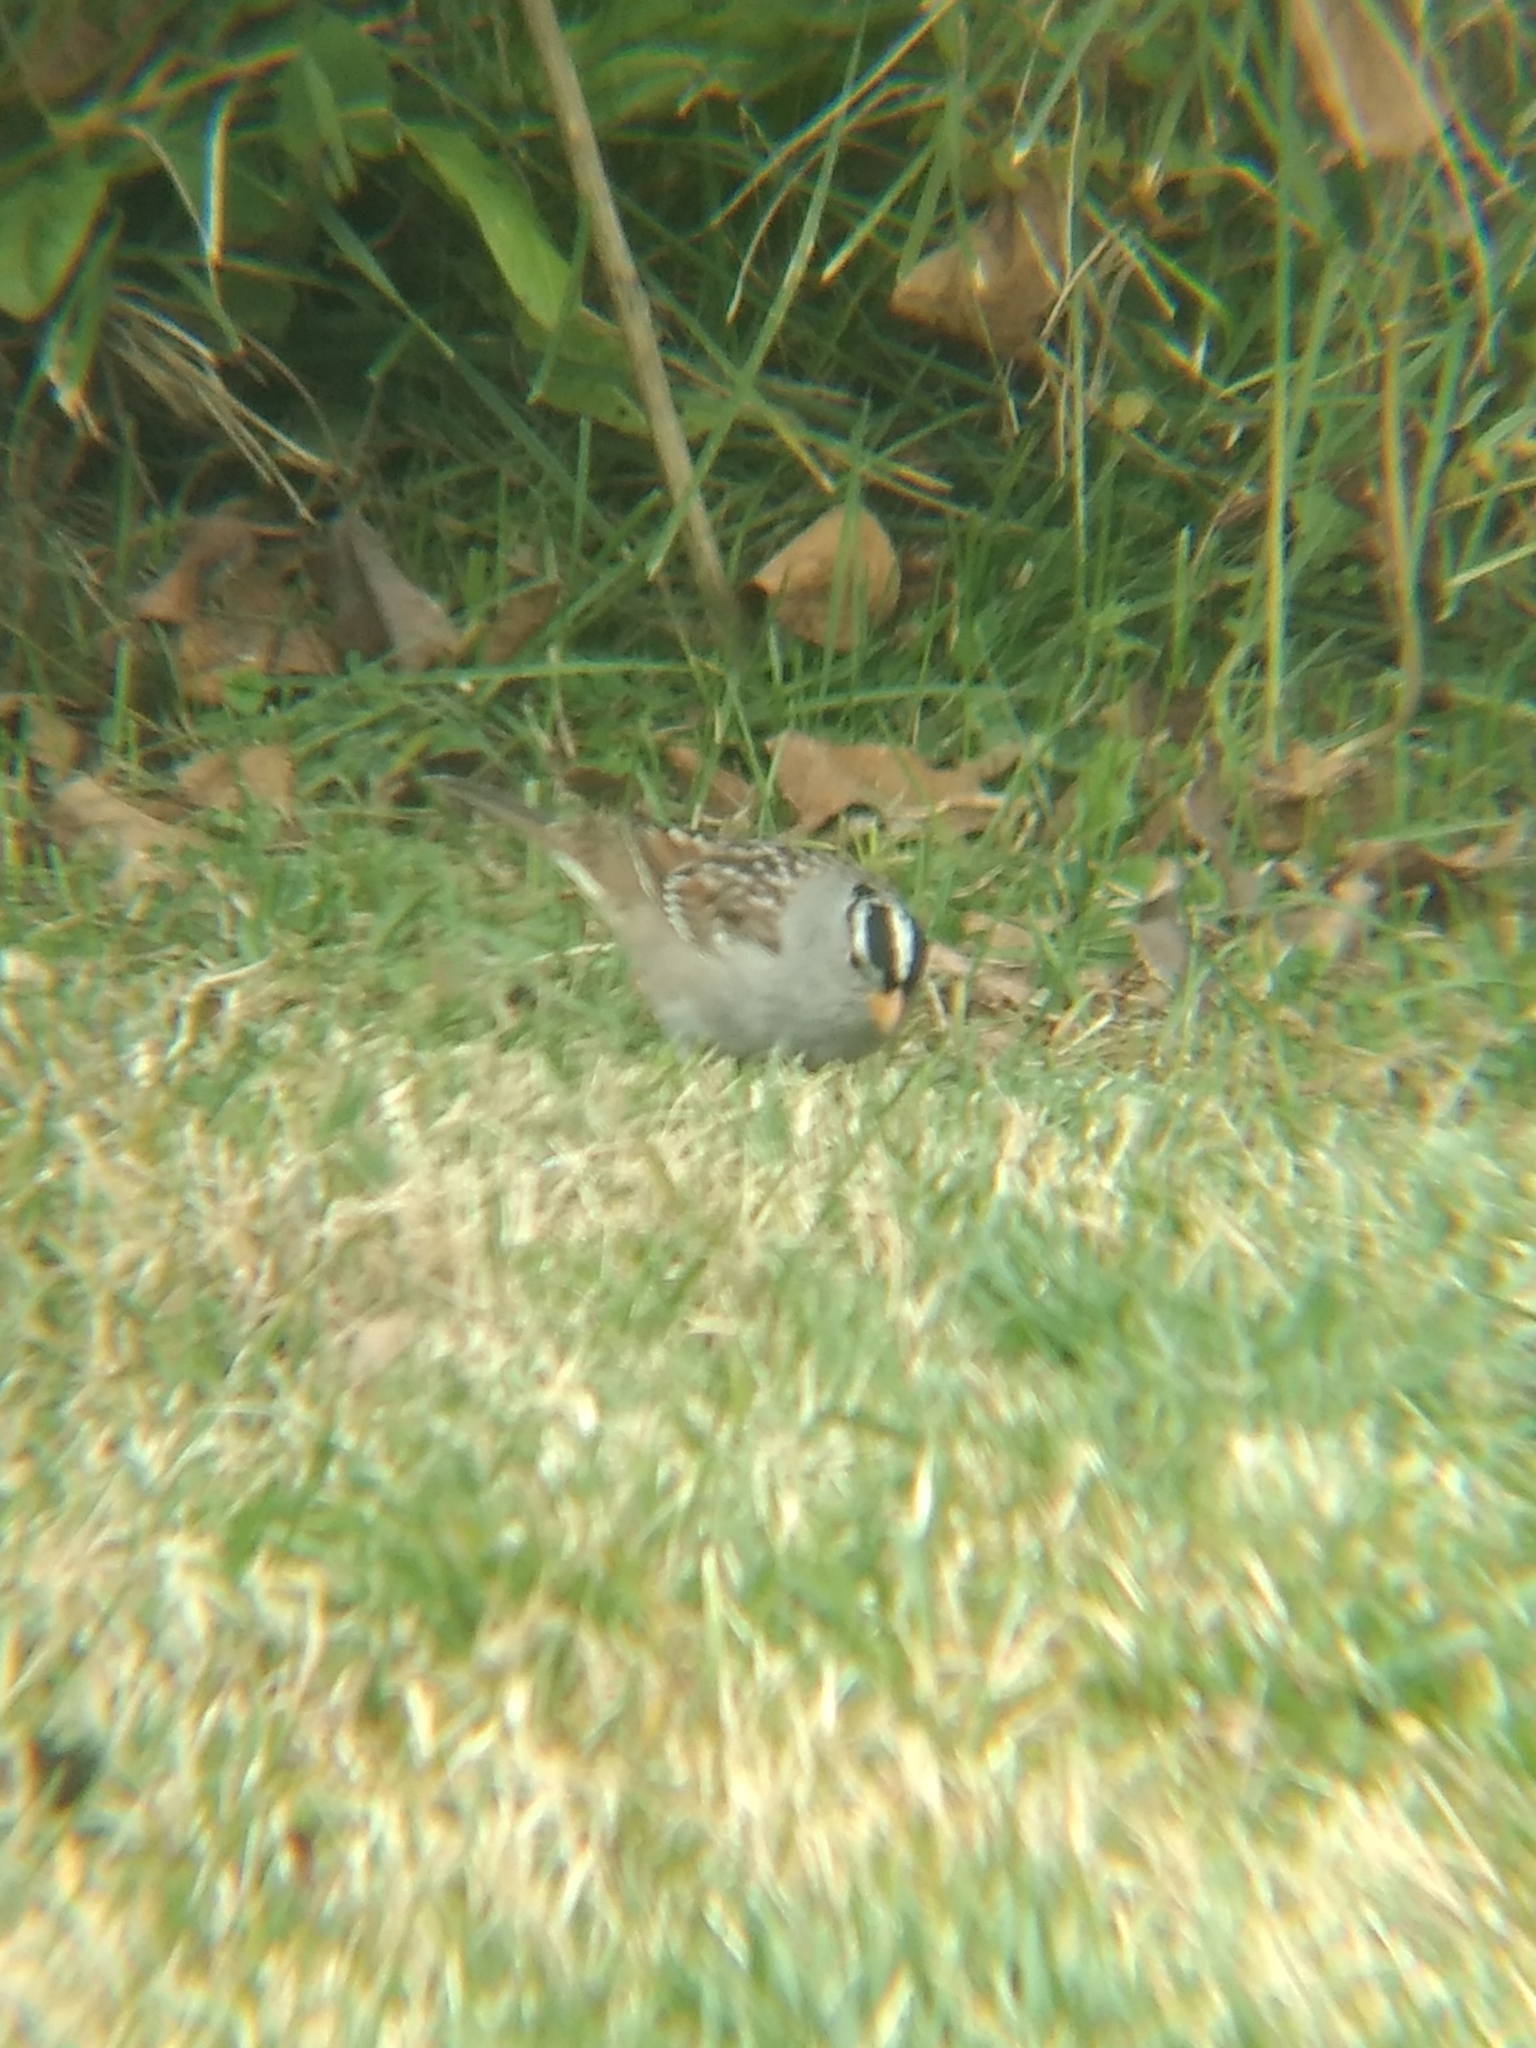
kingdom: Animalia
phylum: Chordata
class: Aves
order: Passeriformes
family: Passerellidae
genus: Zonotrichia
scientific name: Zonotrichia leucophrys
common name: White-crowned sparrow
